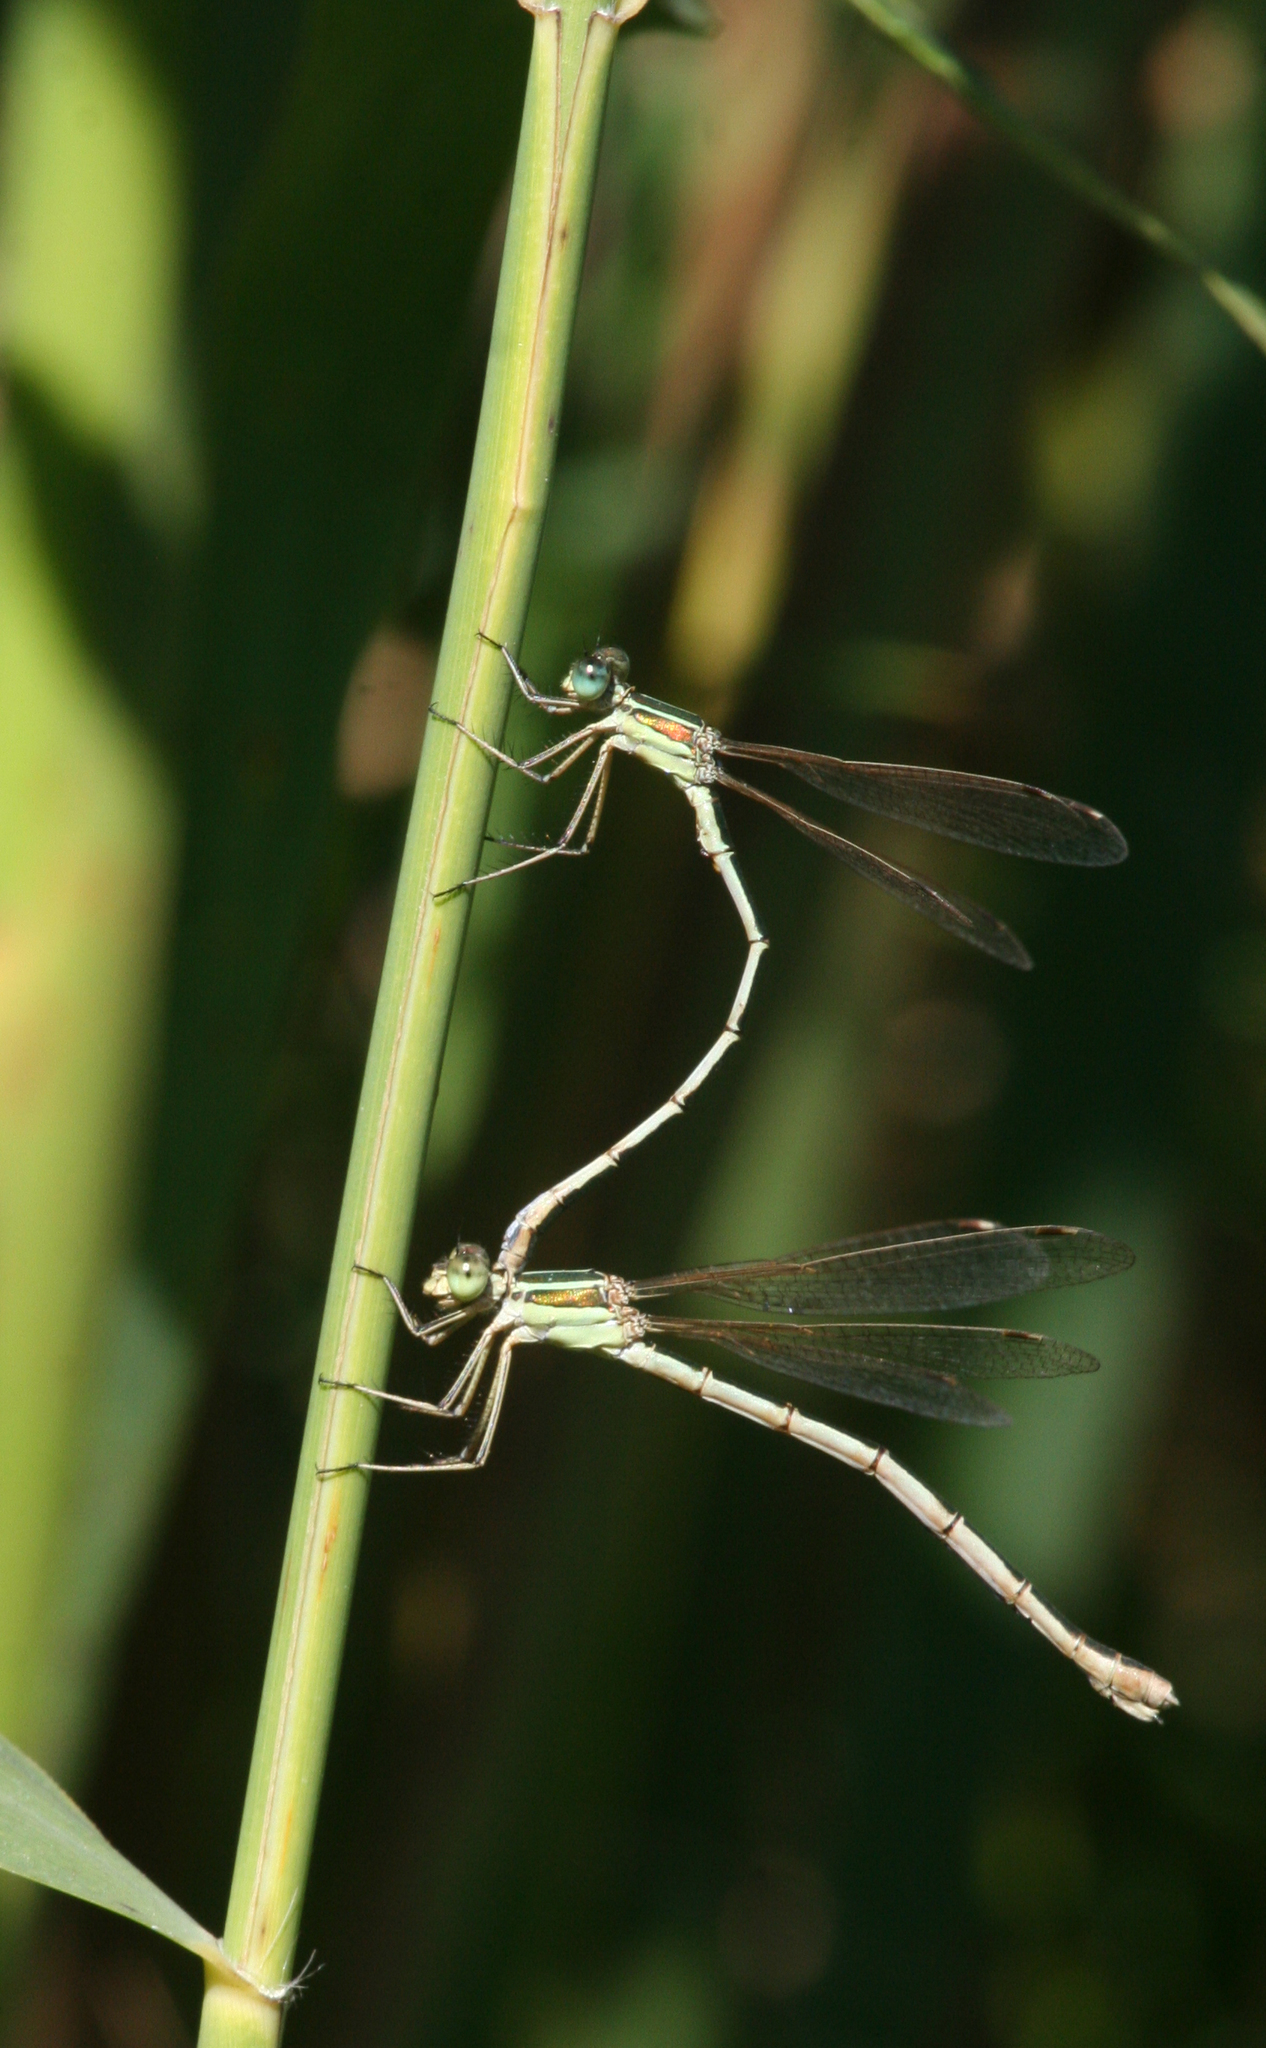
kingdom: Animalia
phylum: Arthropoda
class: Insecta
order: Odonata
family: Lestidae
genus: Lestes
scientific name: Lestes barbarus
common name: Migrant spreadwing
